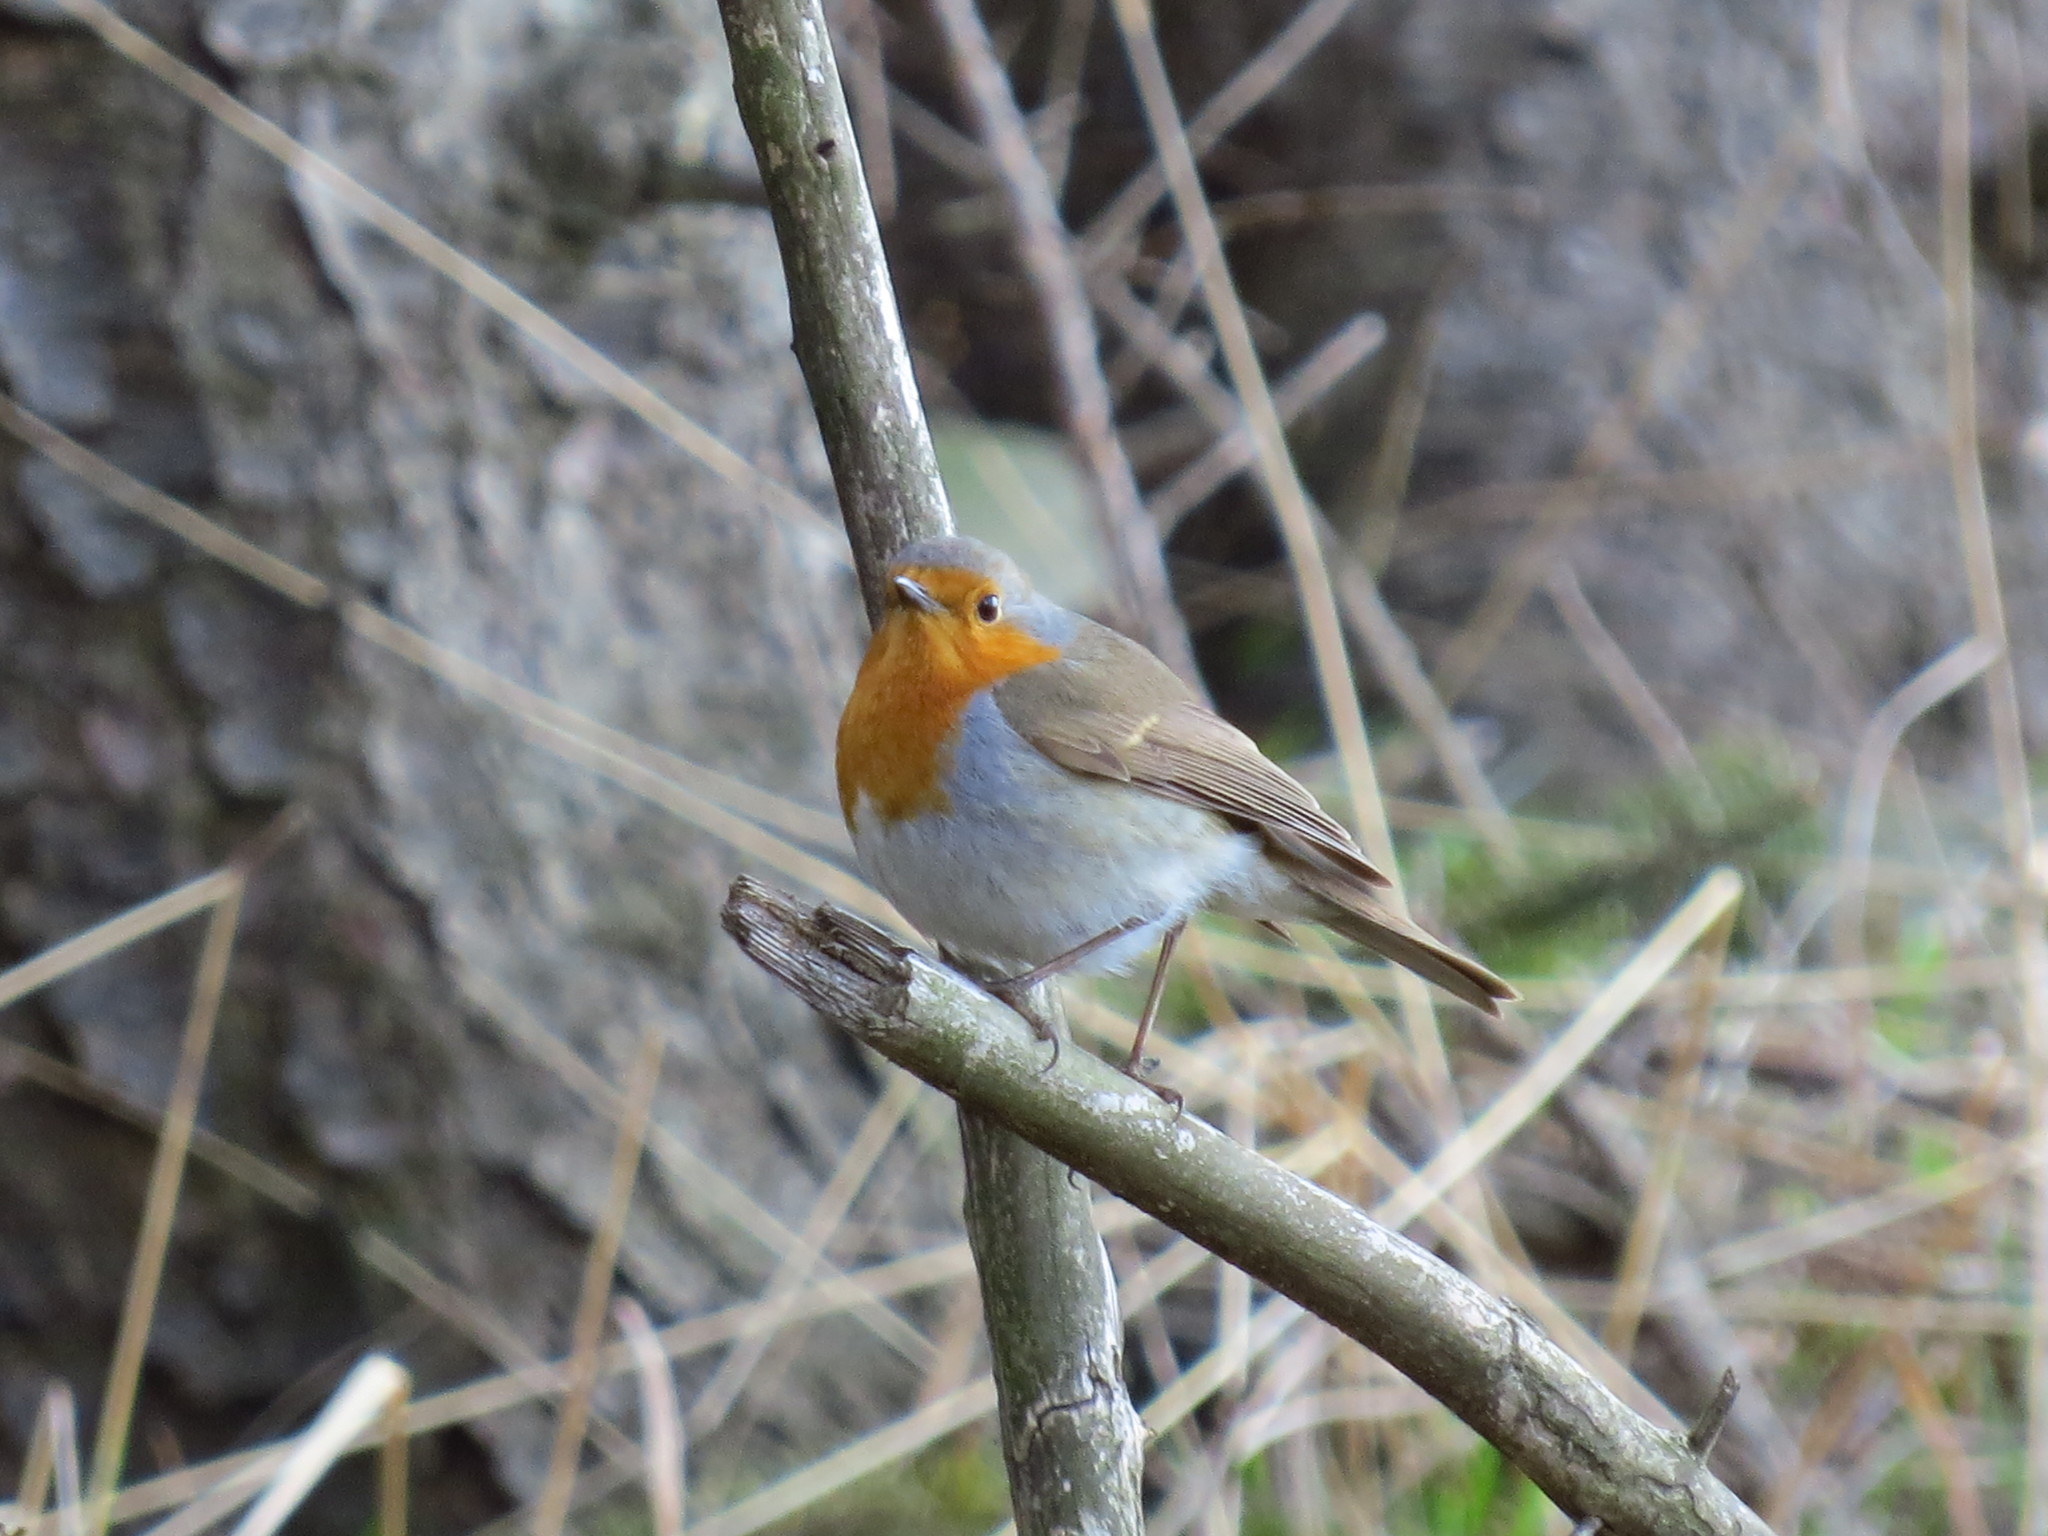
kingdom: Animalia
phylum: Chordata
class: Aves
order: Passeriformes
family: Muscicapidae
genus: Erithacus
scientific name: Erithacus rubecula
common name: European robin
